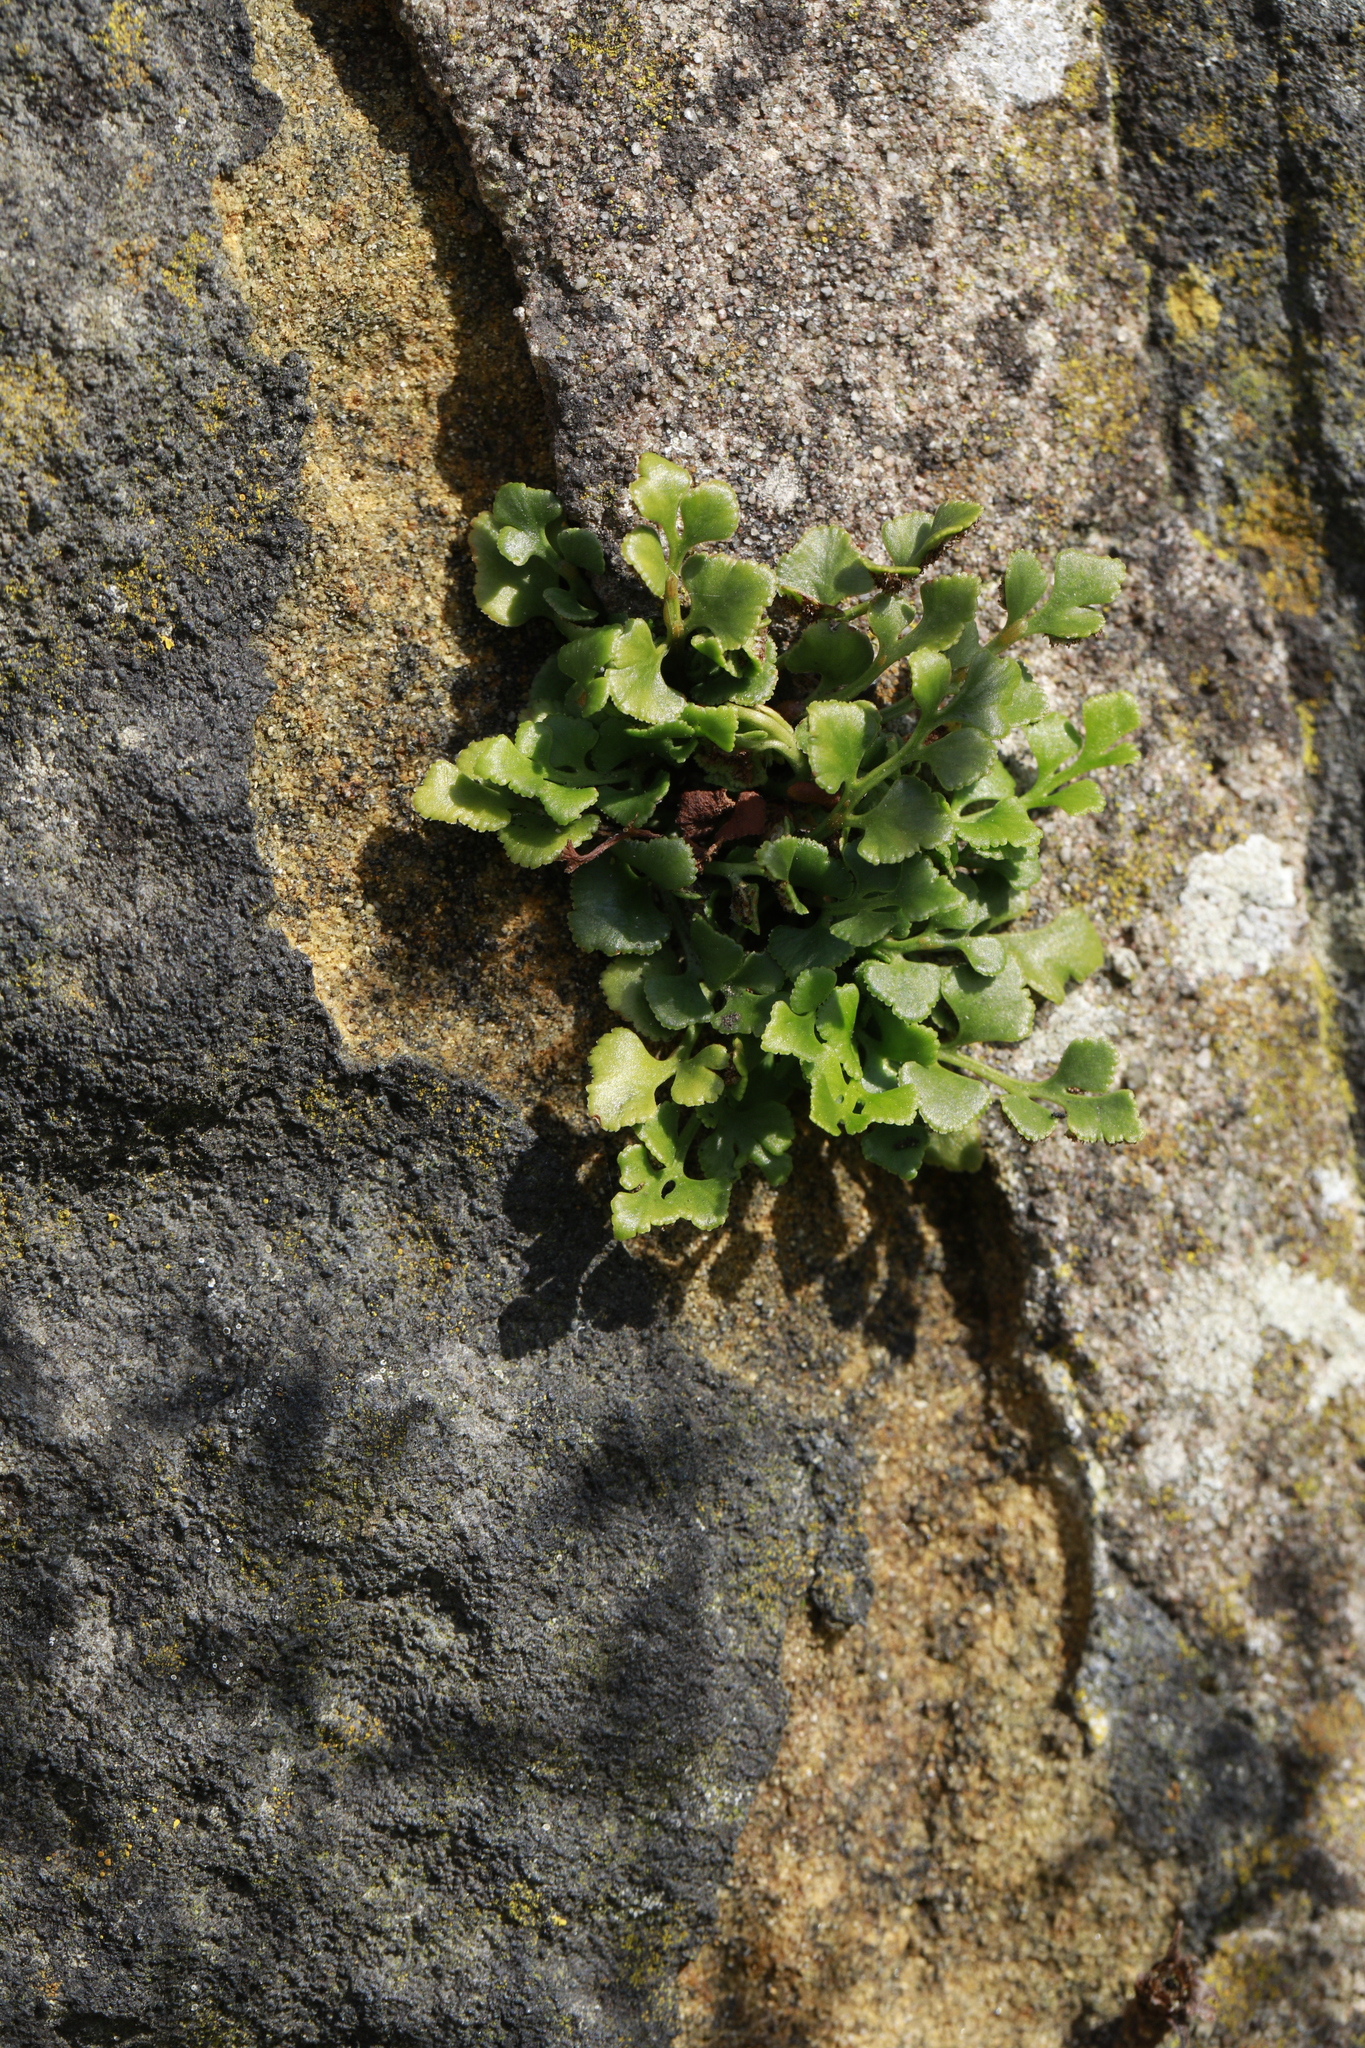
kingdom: Plantae
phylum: Tracheophyta
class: Polypodiopsida
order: Polypodiales
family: Aspleniaceae
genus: Asplenium
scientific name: Asplenium ruta-muraria
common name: Wall-rue
